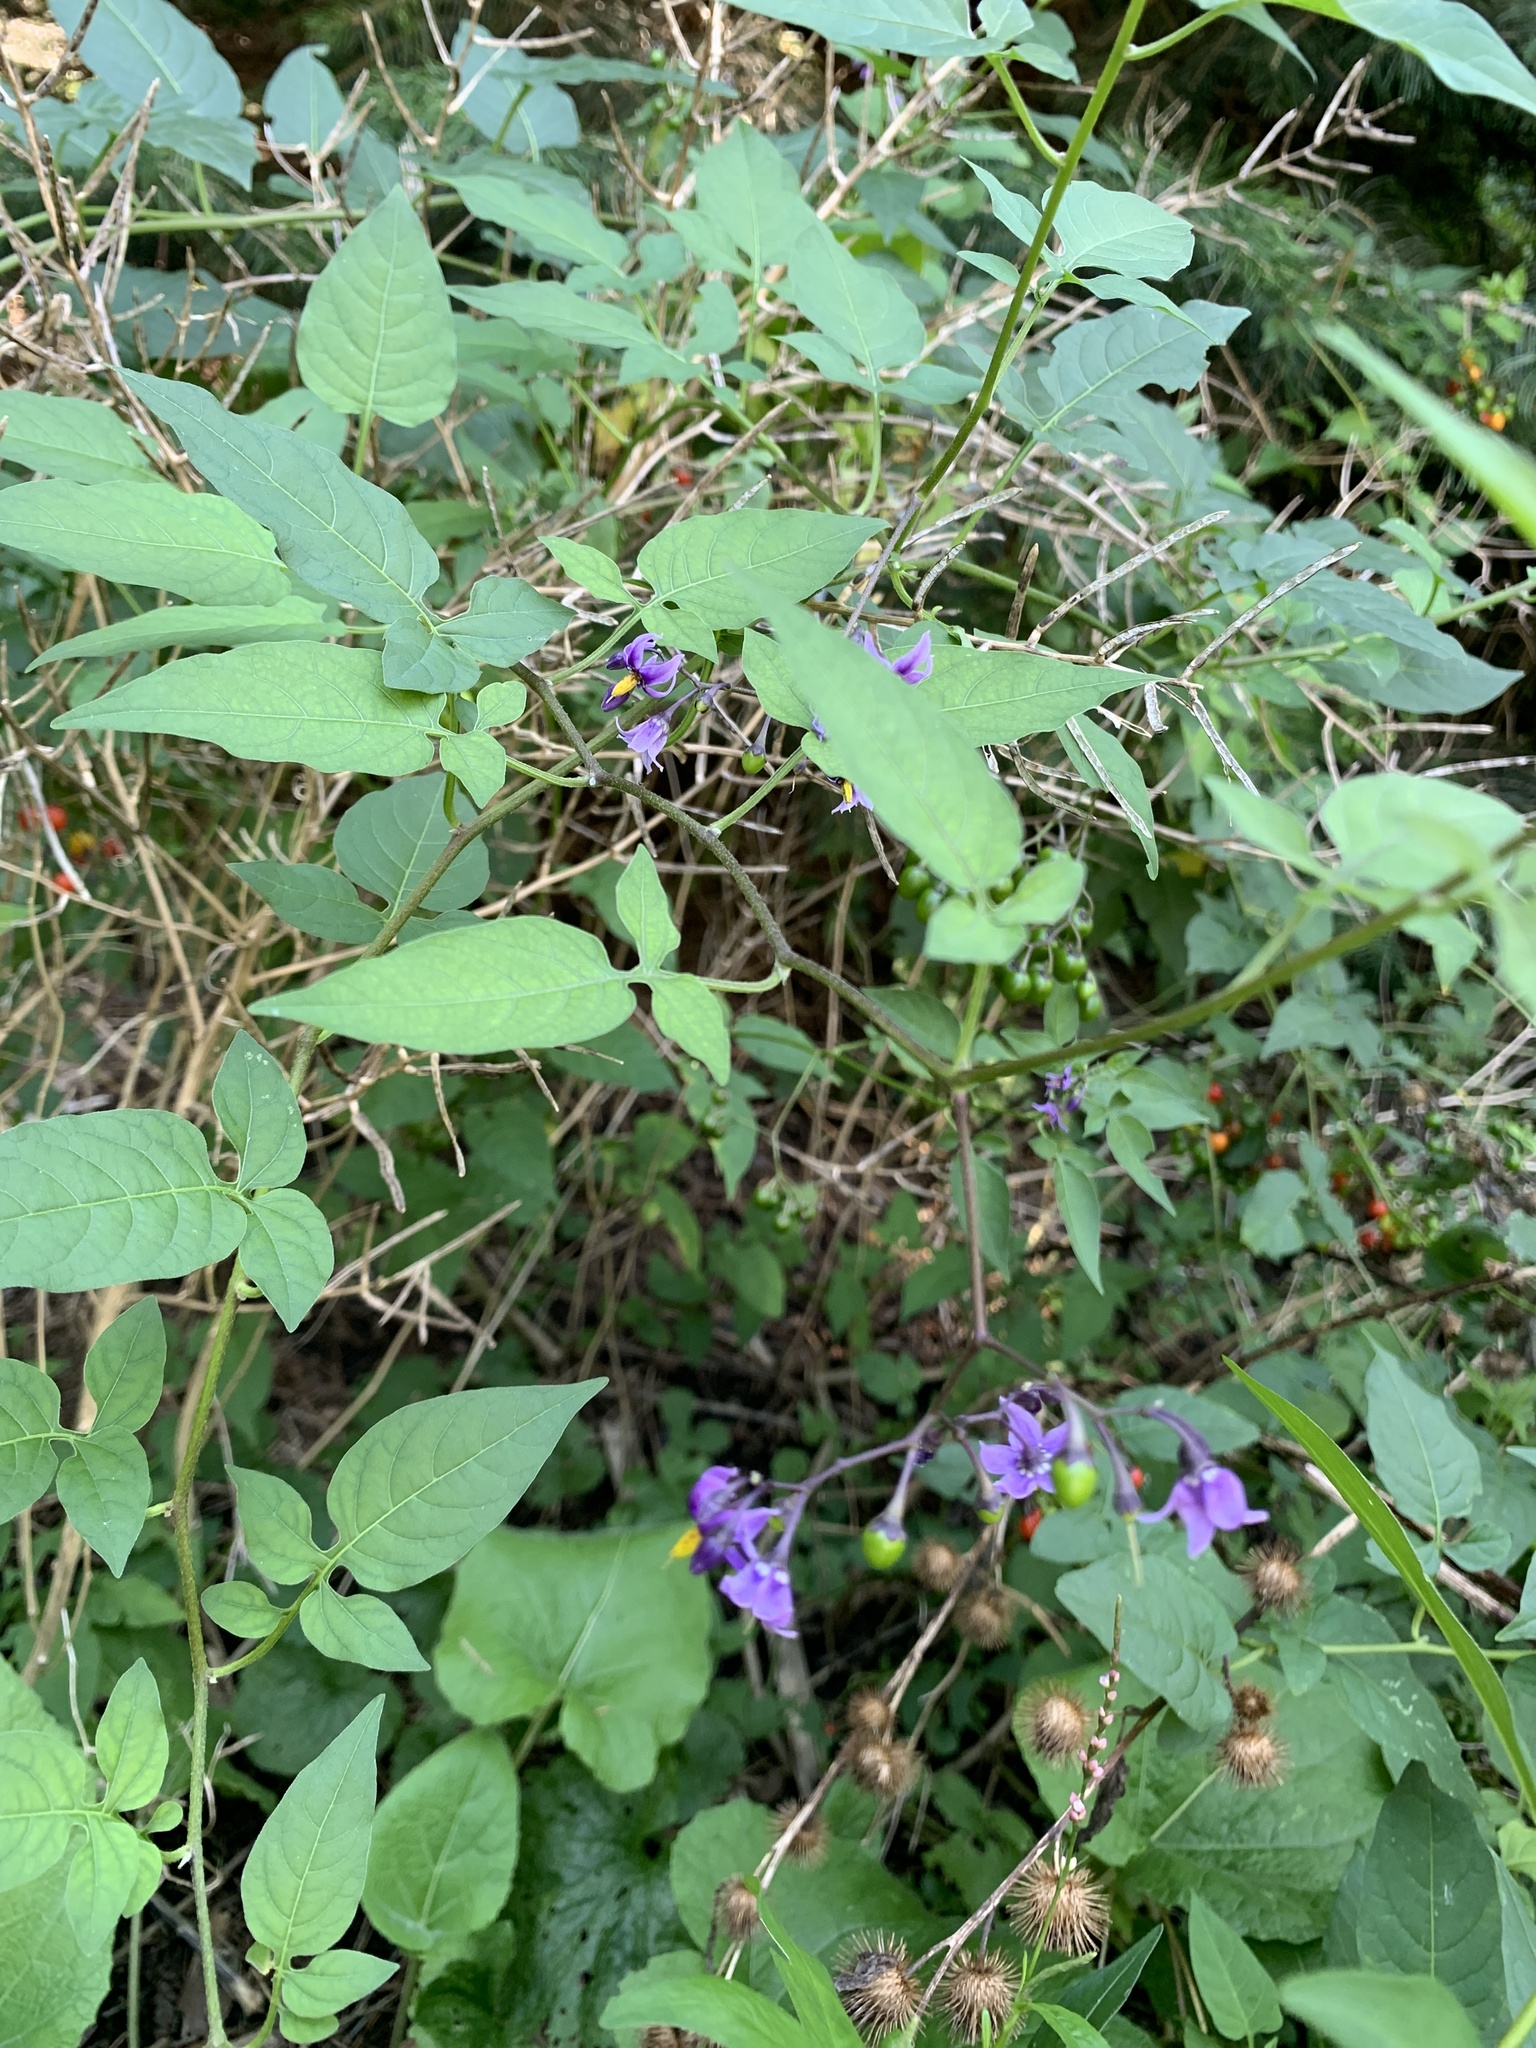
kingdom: Plantae
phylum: Tracheophyta
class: Magnoliopsida
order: Solanales
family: Solanaceae
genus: Solanum
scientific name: Solanum dulcamara
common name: Climbing nightshade
